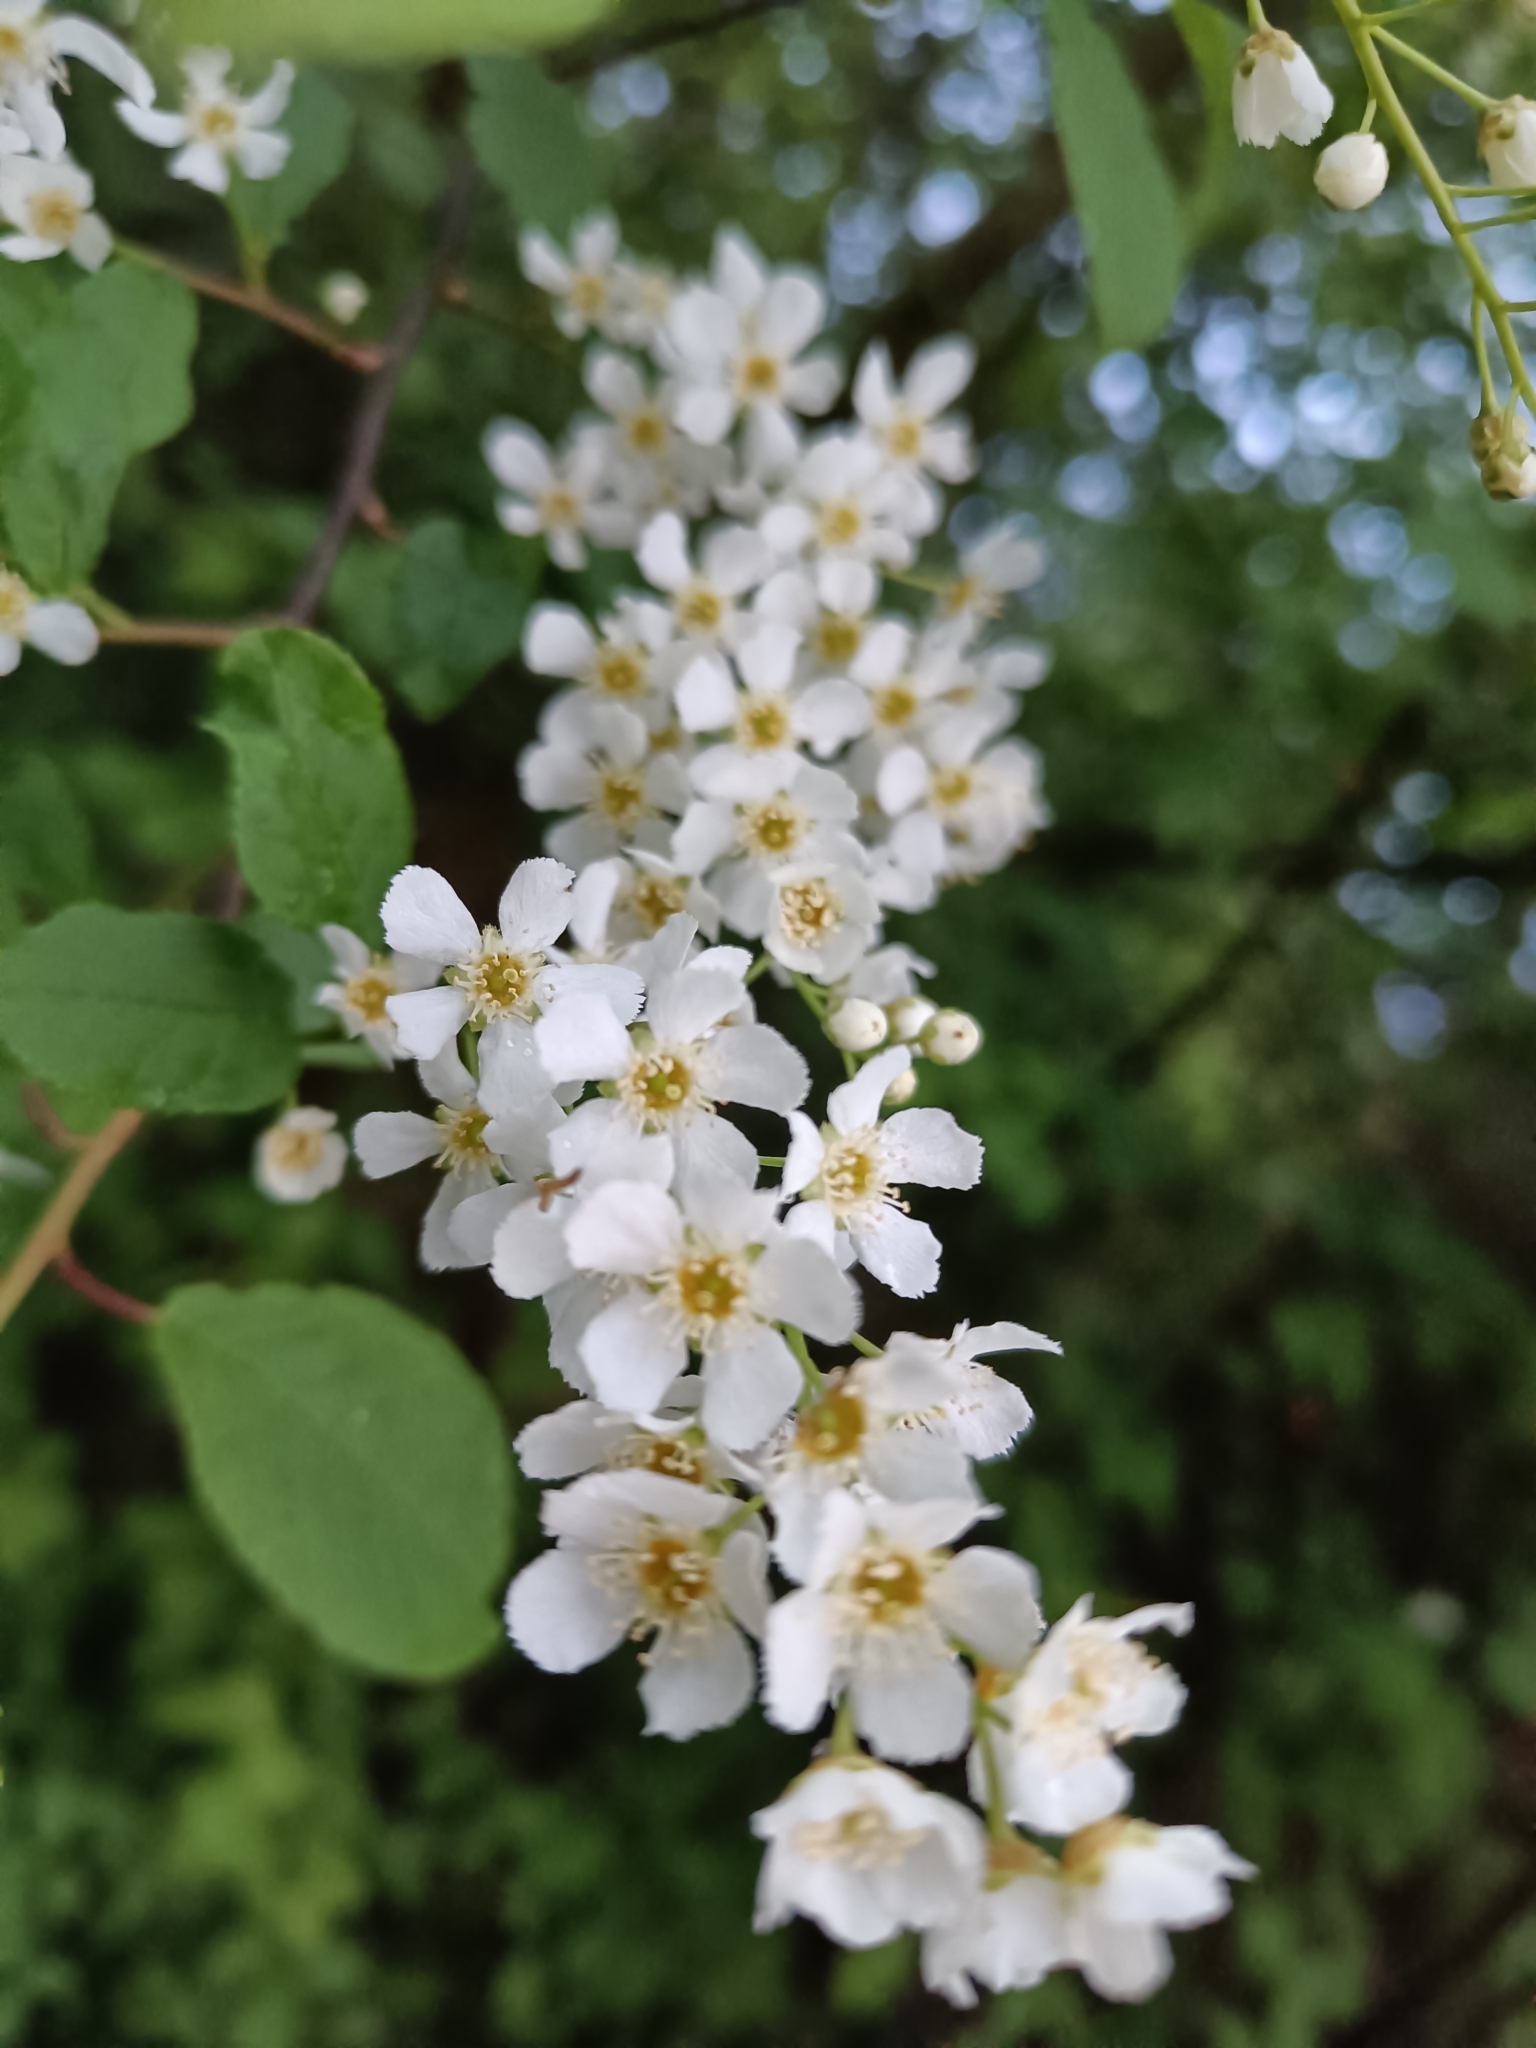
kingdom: Plantae
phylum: Tracheophyta
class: Magnoliopsida
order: Rosales
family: Rosaceae
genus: Prunus
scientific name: Prunus padus
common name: Bird cherry
